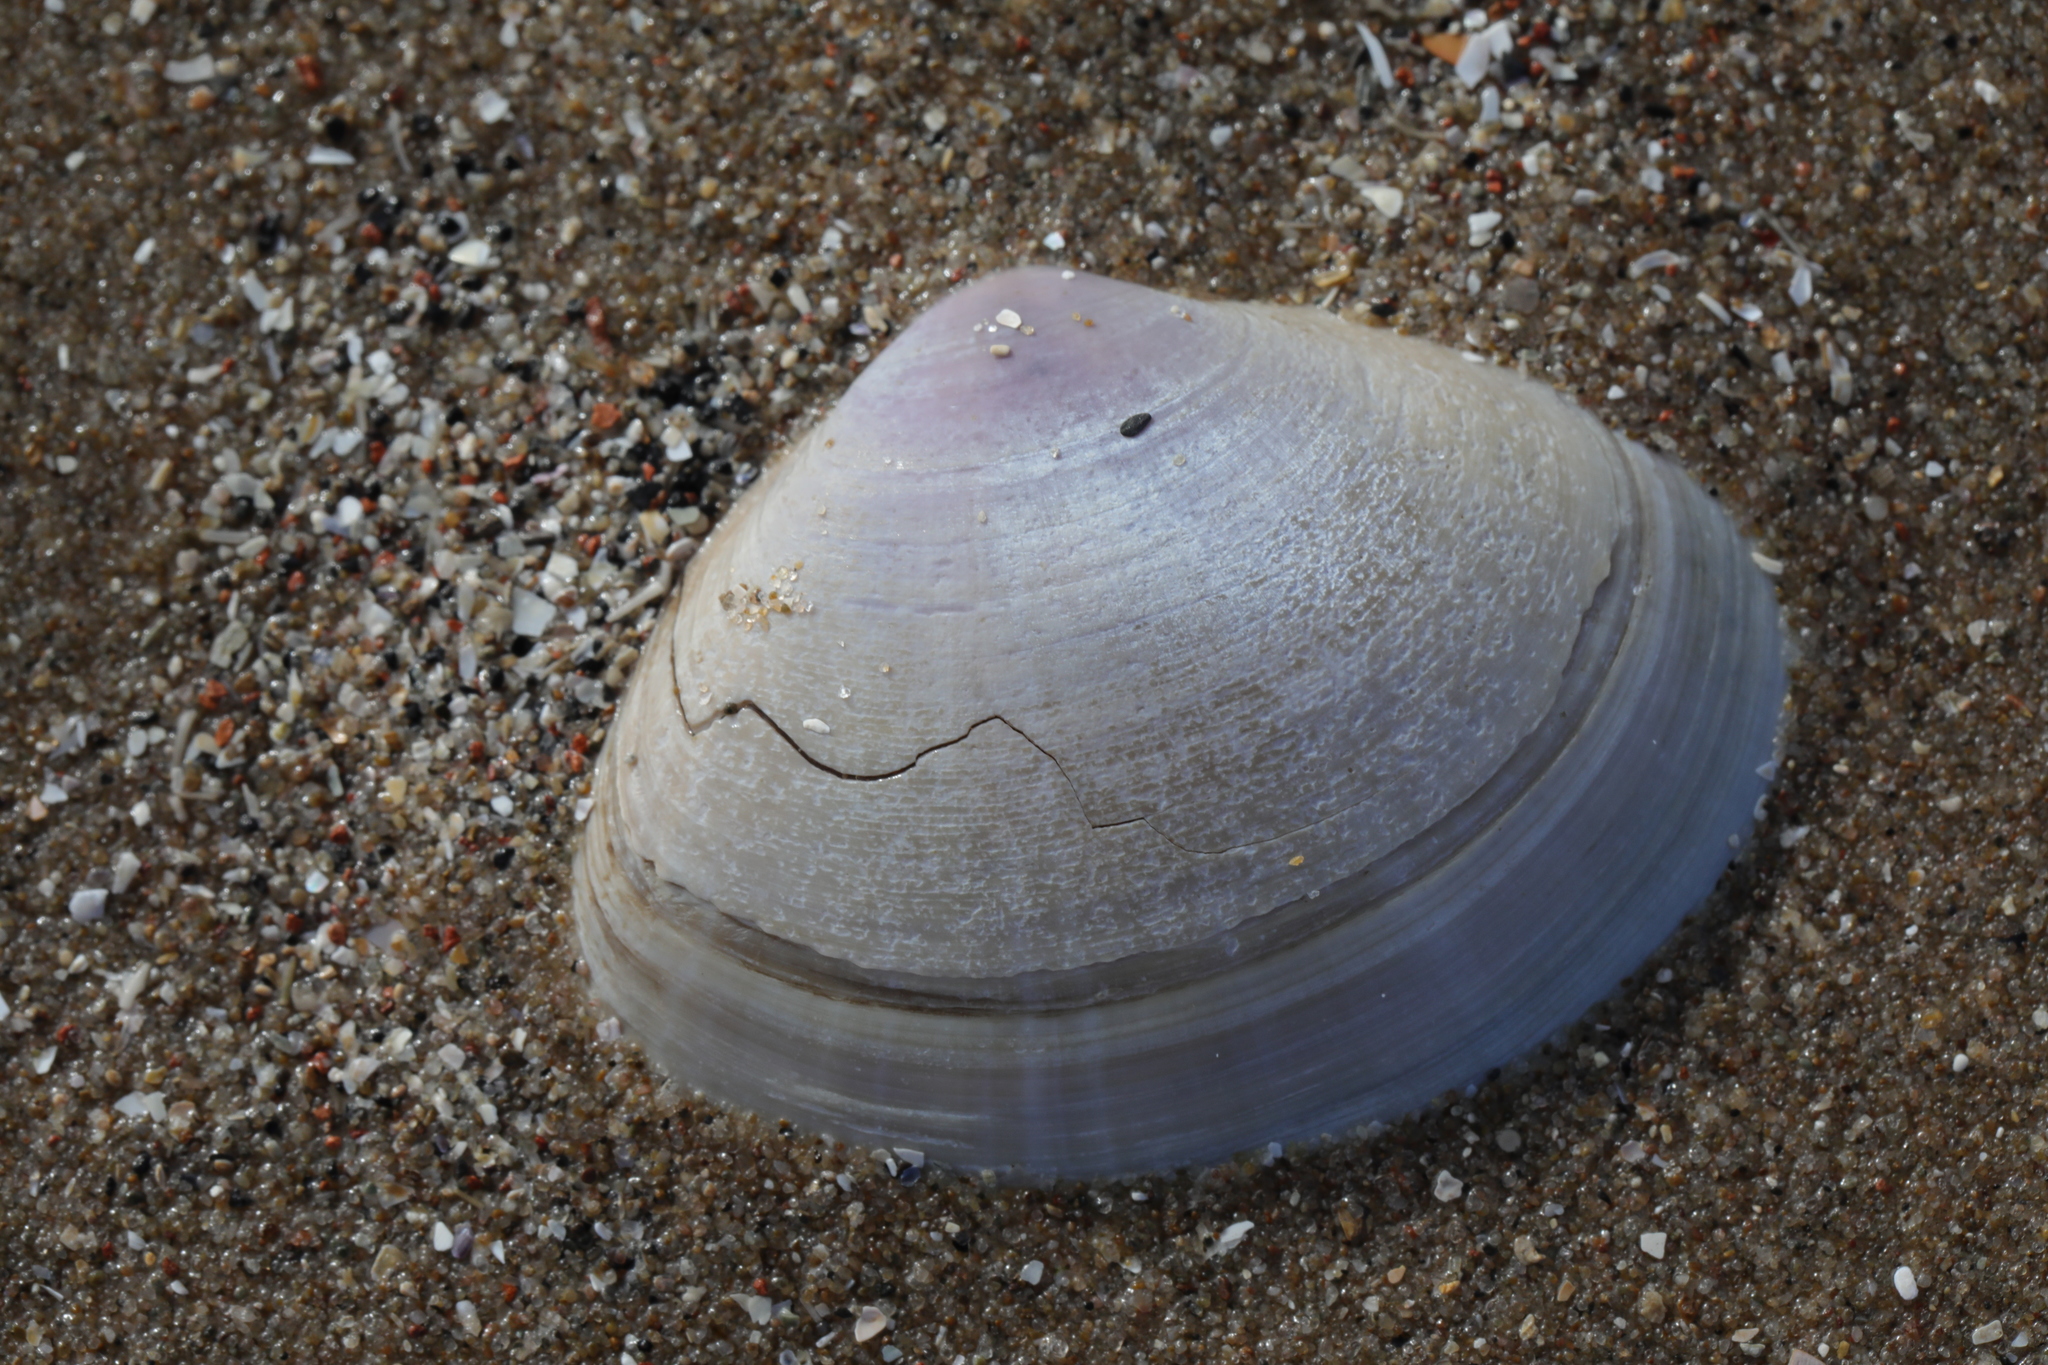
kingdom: Animalia
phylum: Mollusca
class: Bivalvia
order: Venerida
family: Mactridae
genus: Mactra
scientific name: Mactra stultorum
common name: Rayed trough shell
